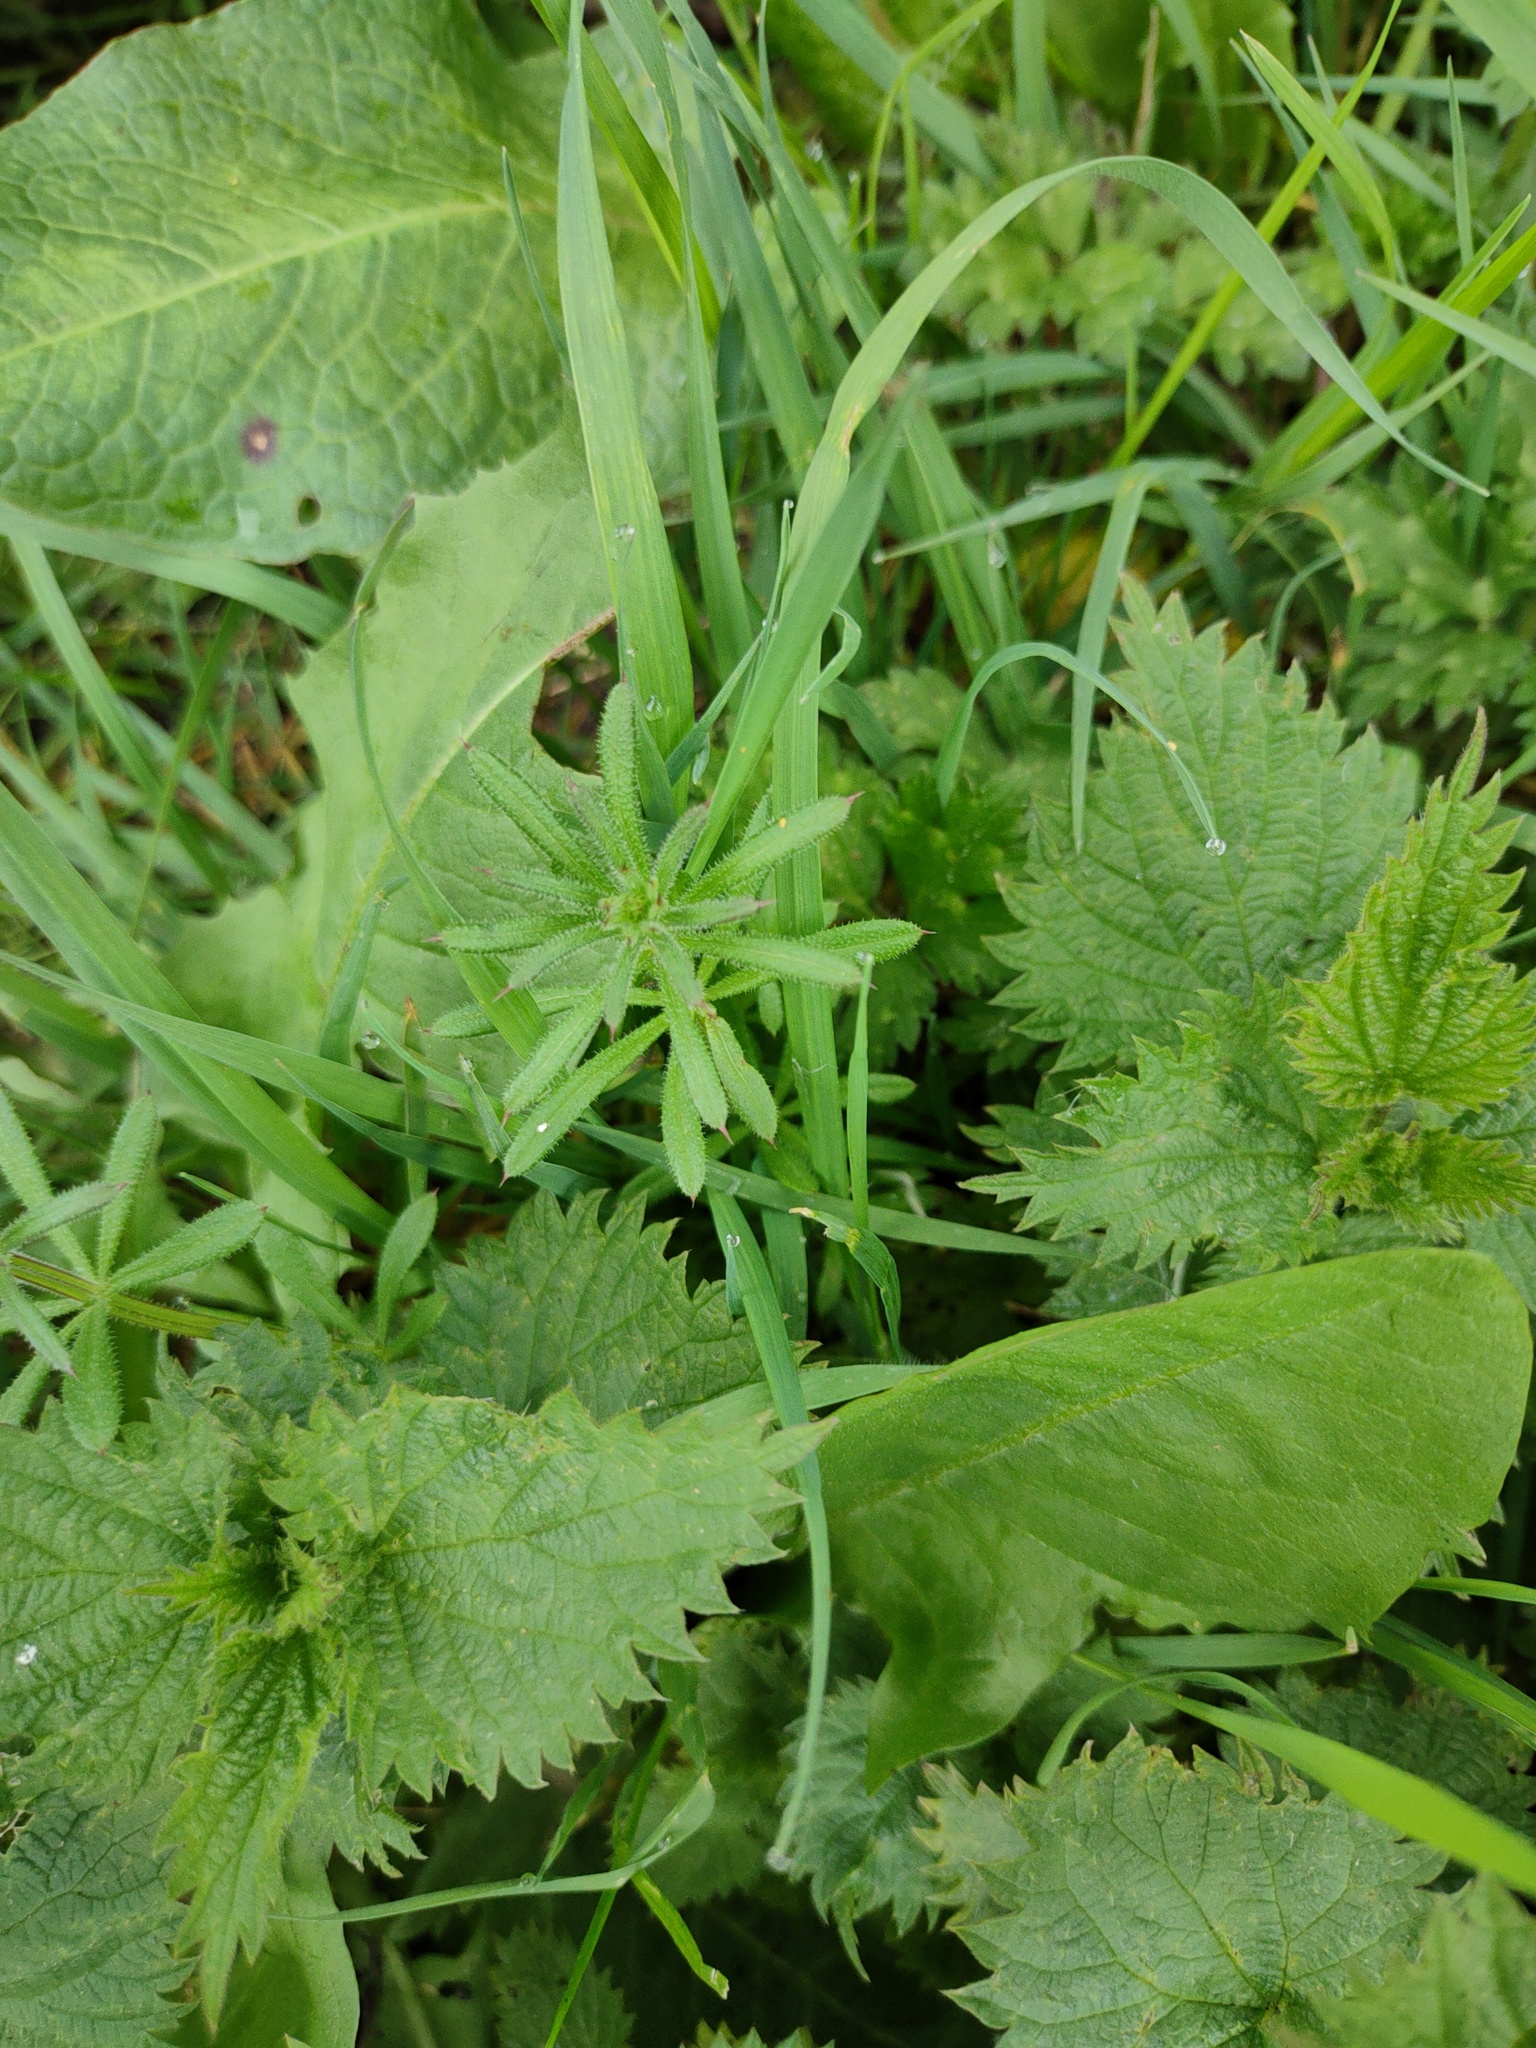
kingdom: Plantae
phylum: Tracheophyta
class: Magnoliopsida
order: Gentianales
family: Rubiaceae
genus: Galium
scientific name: Galium aparine
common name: Cleavers
